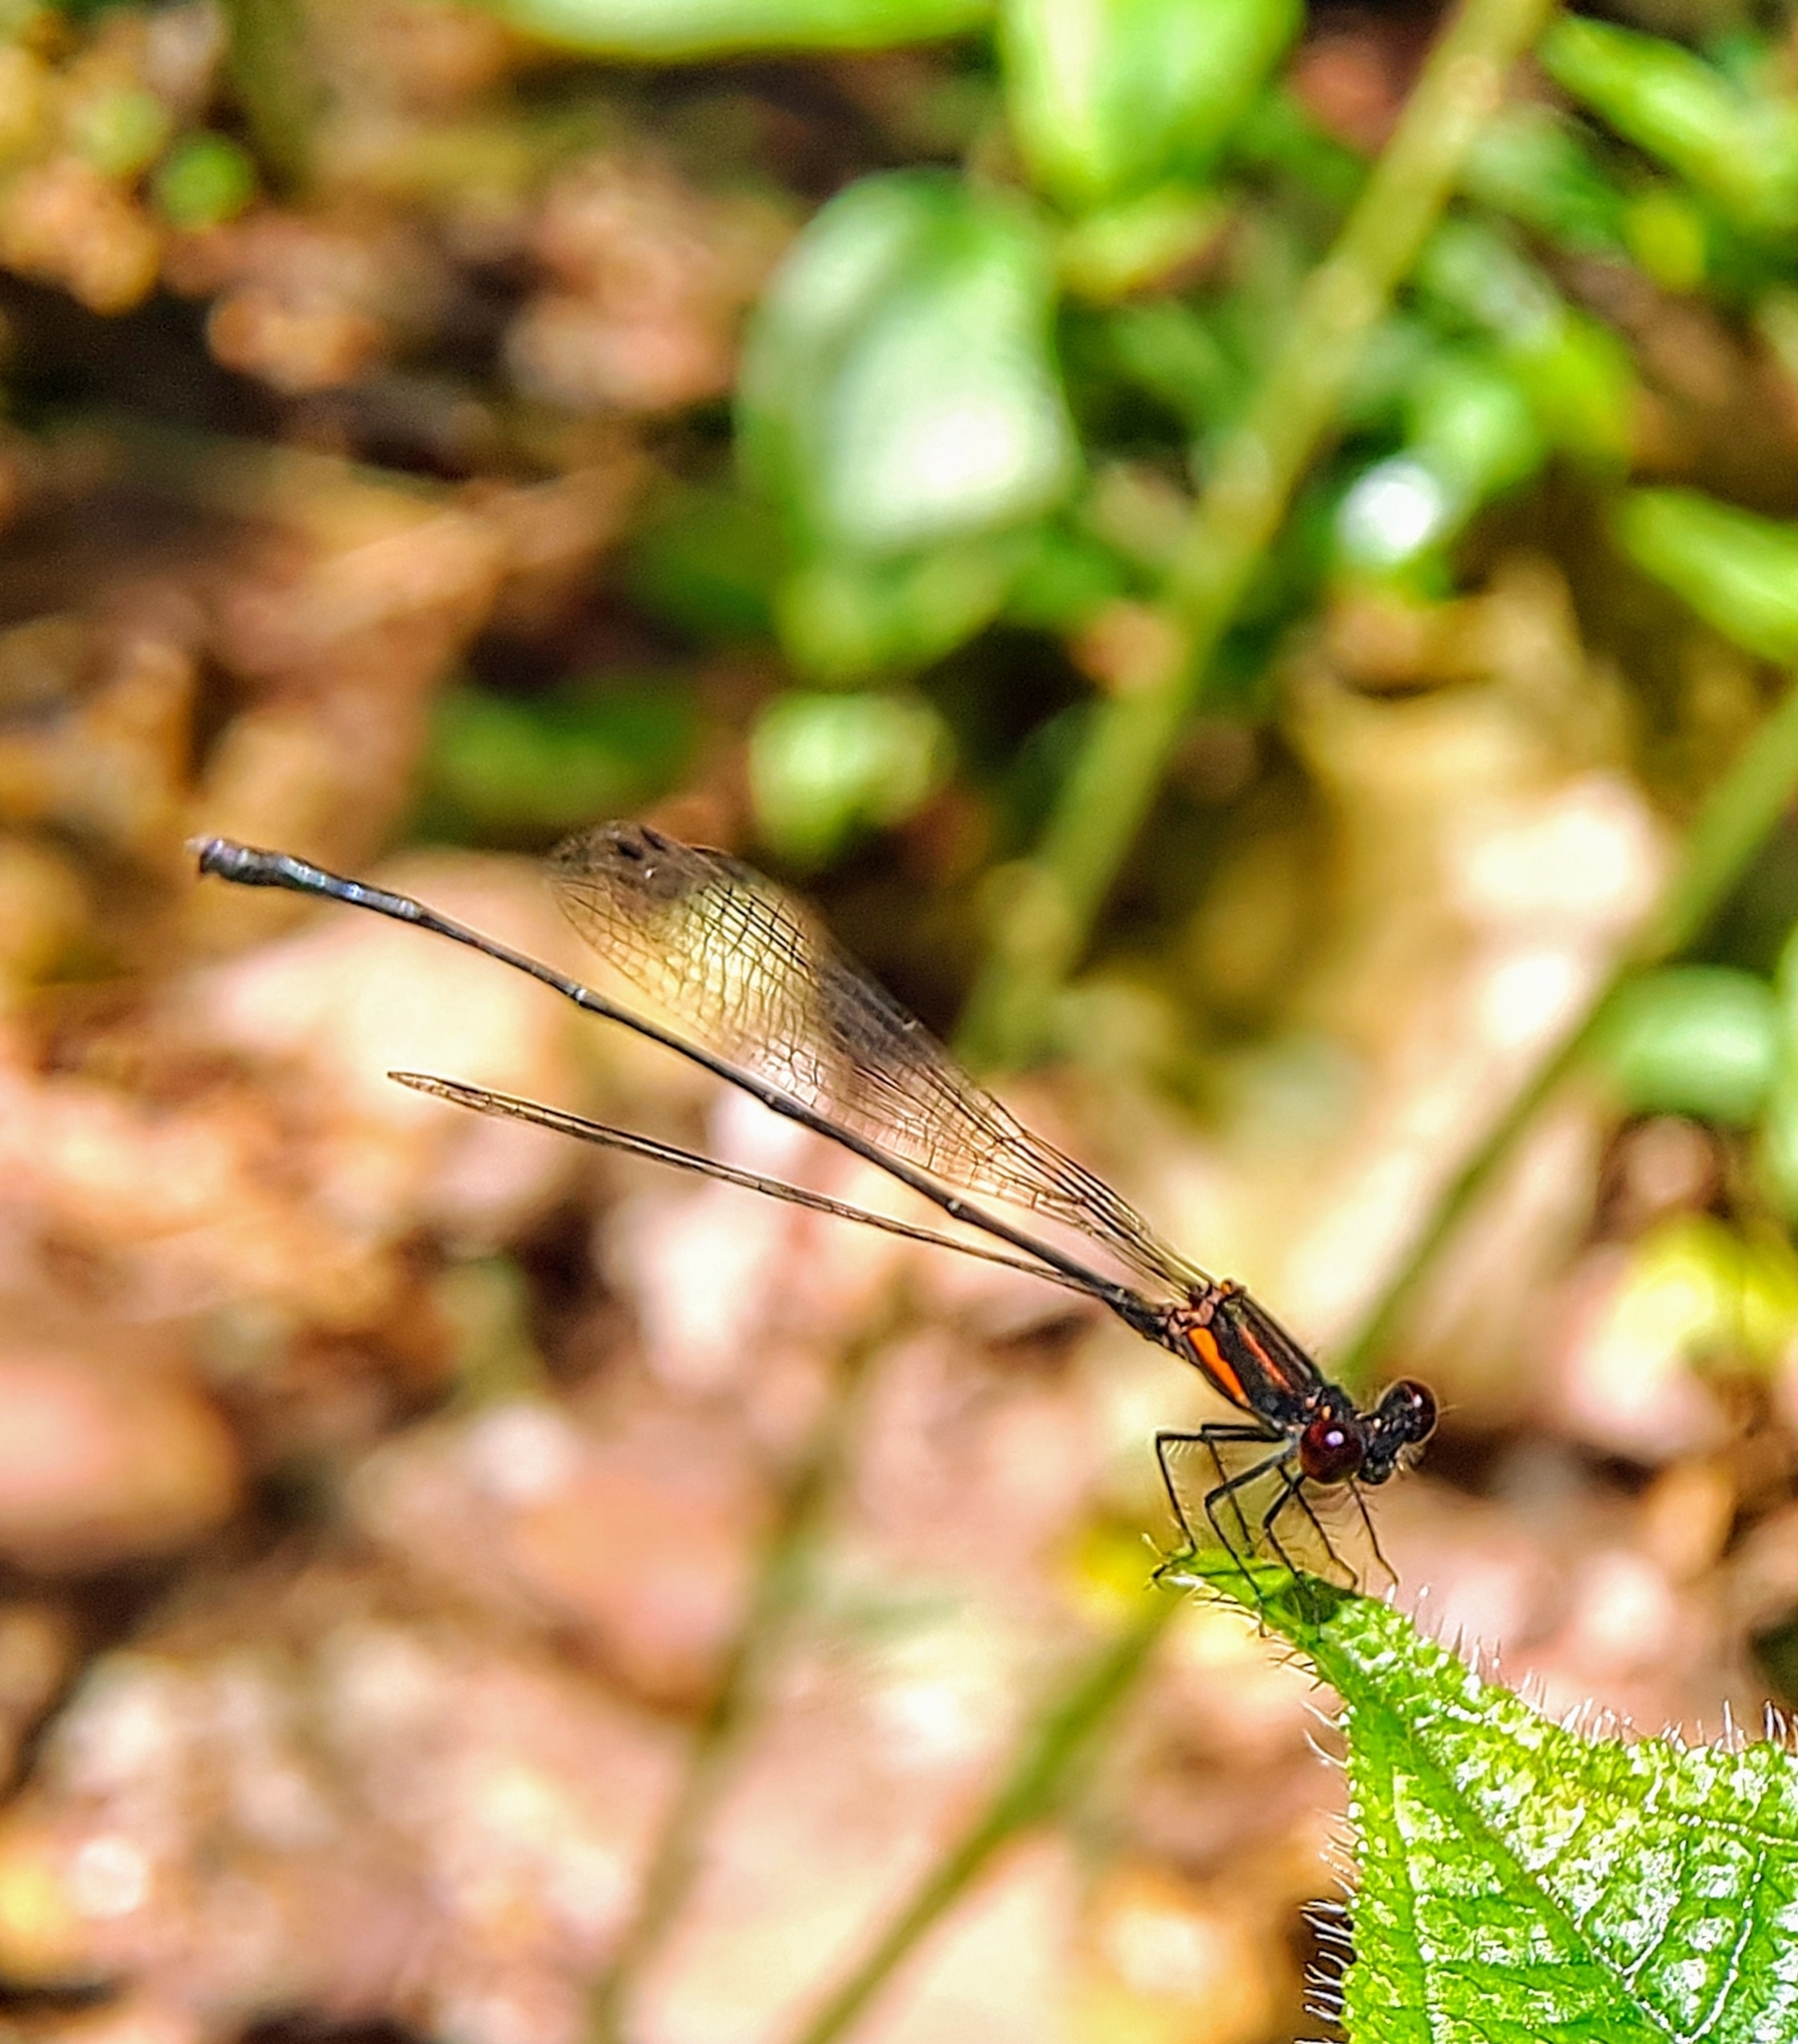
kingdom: Animalia
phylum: Arthropoda
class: Insecta
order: Odonata
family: Platycnemididae
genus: Prodasineura
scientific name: Prodasineura verticalis
